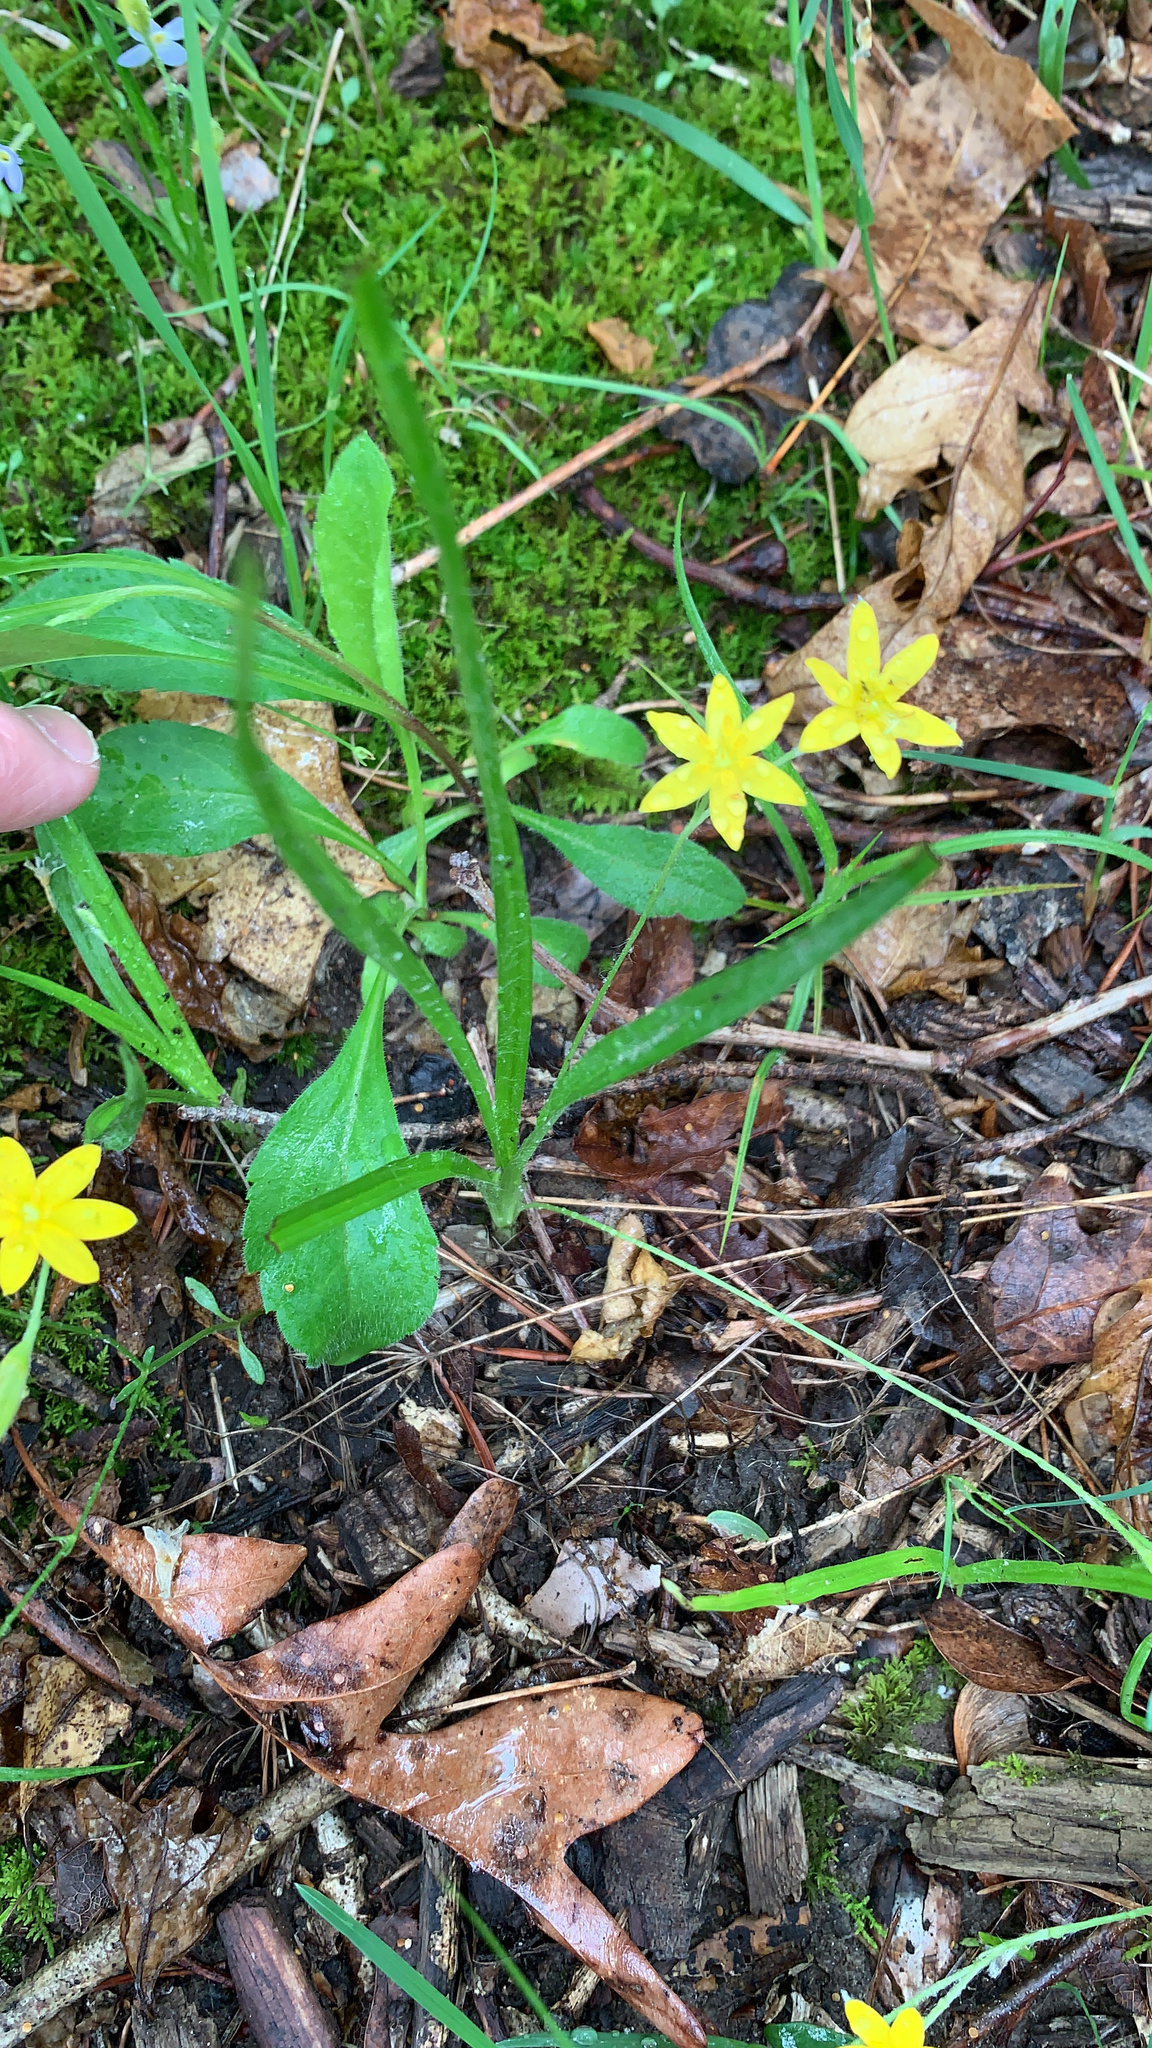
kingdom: Plantae
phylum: Tracheophyta
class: Liliopsida
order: Asparagales
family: Hypoxidaceae
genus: Hypoxis
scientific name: Hypoxis hirsuta
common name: Common goldstar
